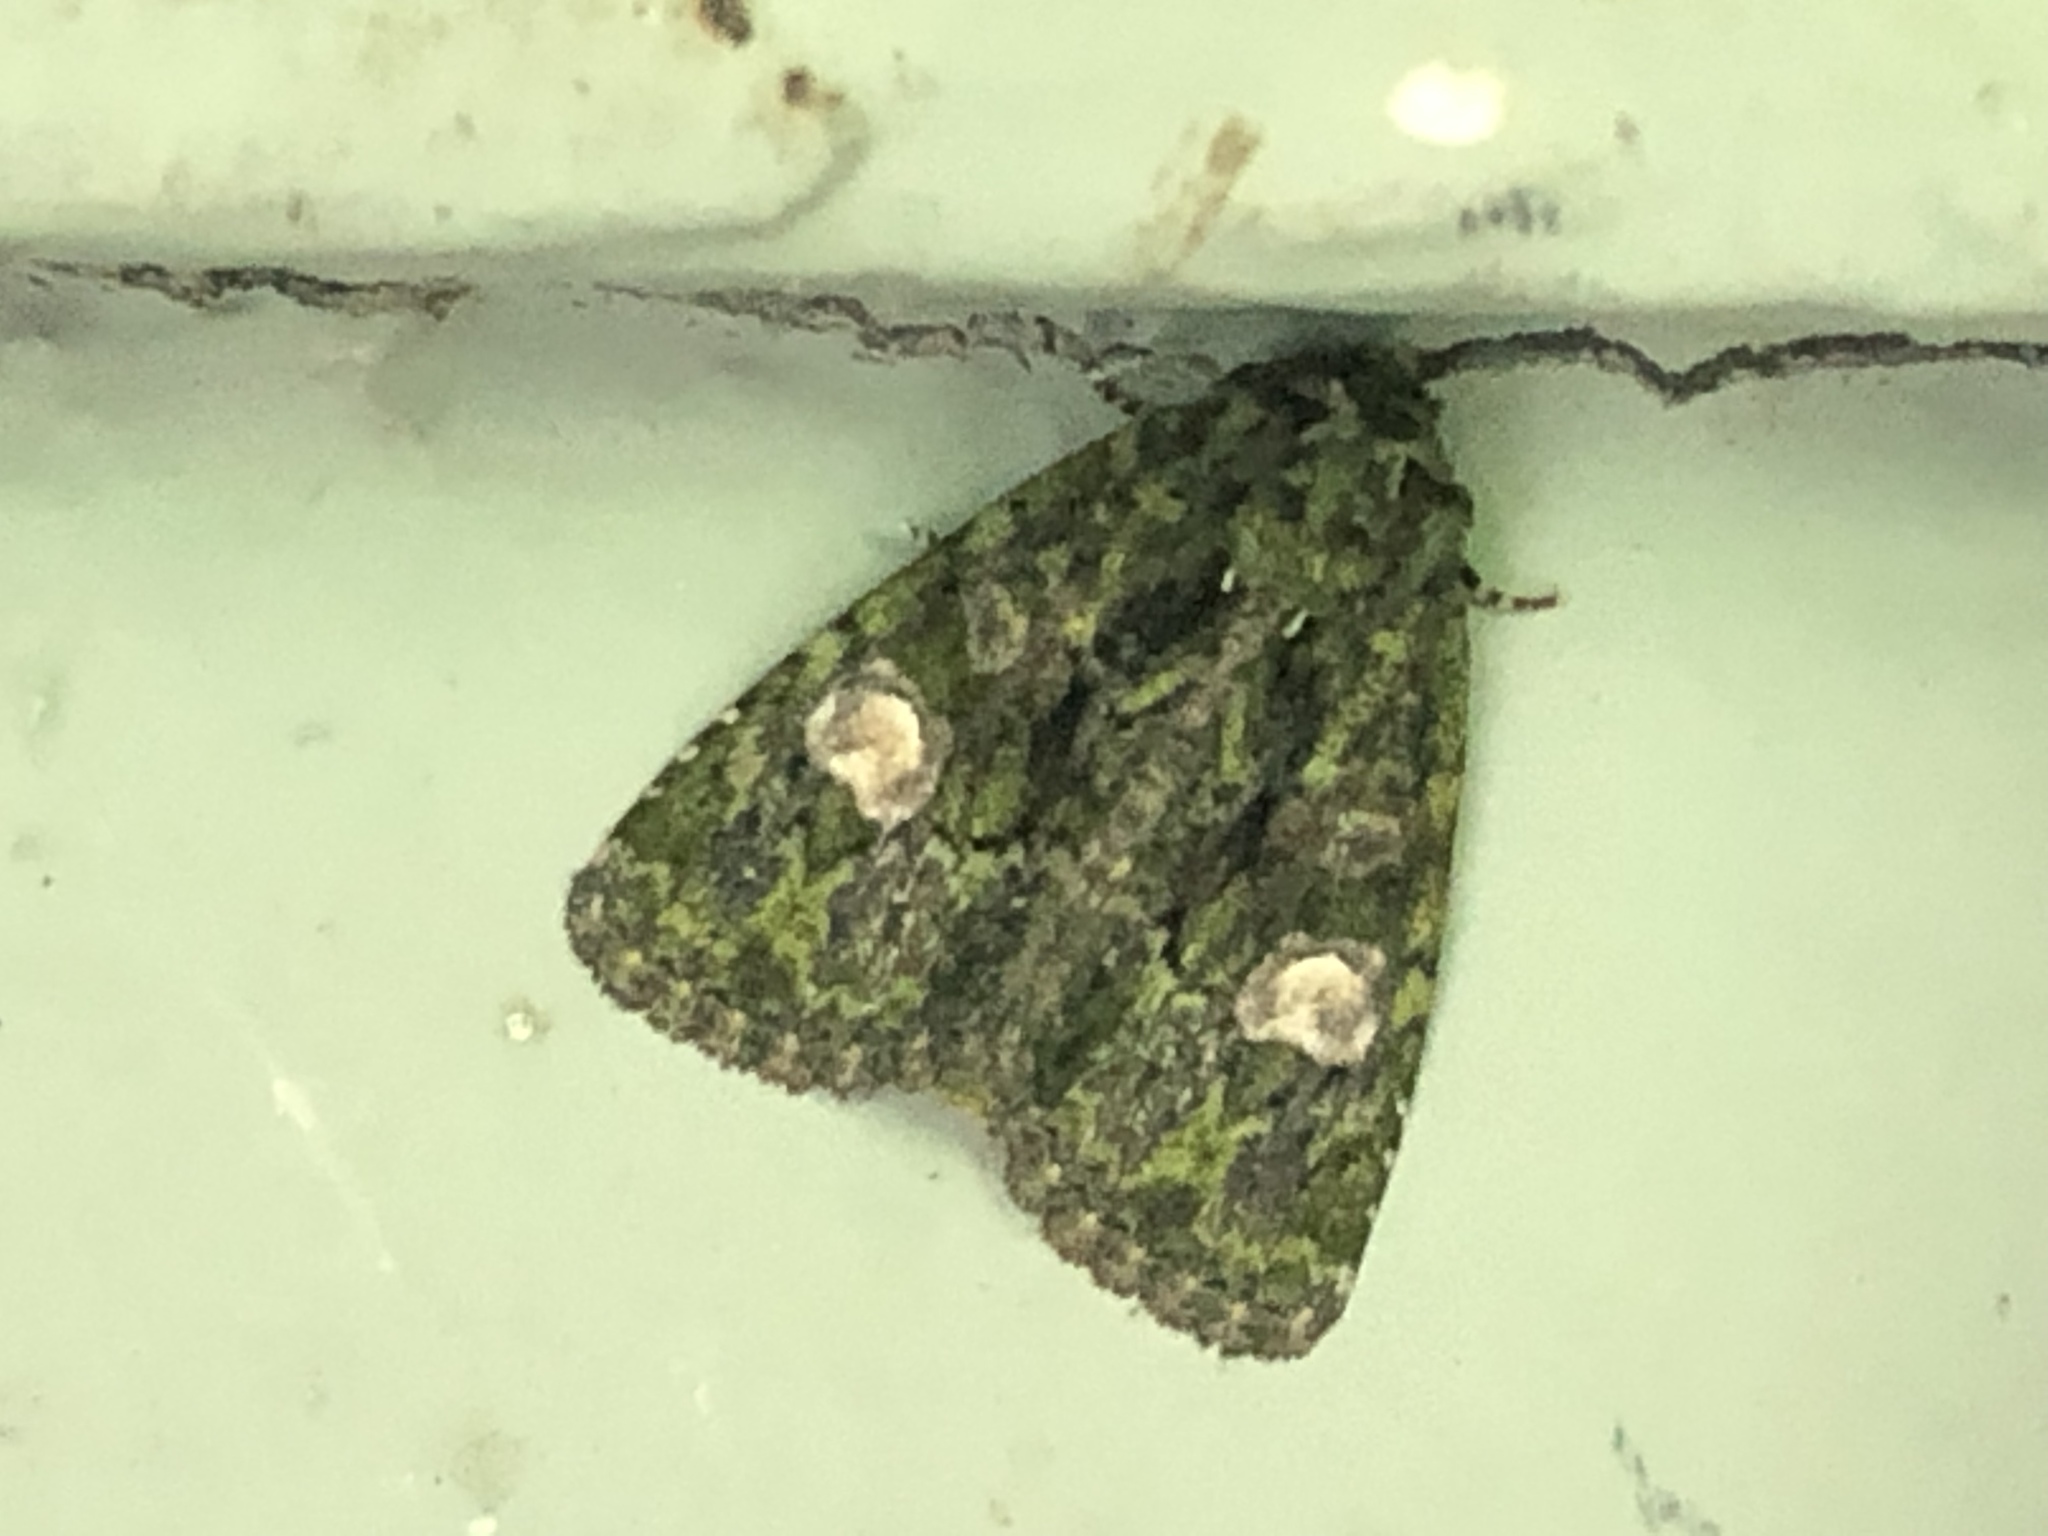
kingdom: Animalia
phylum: Arthropoda
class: Insecta
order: Lepidoptera
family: Noctuidae
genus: Phosphila
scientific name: Phosphila miselioides
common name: Spotted phosphila moth
